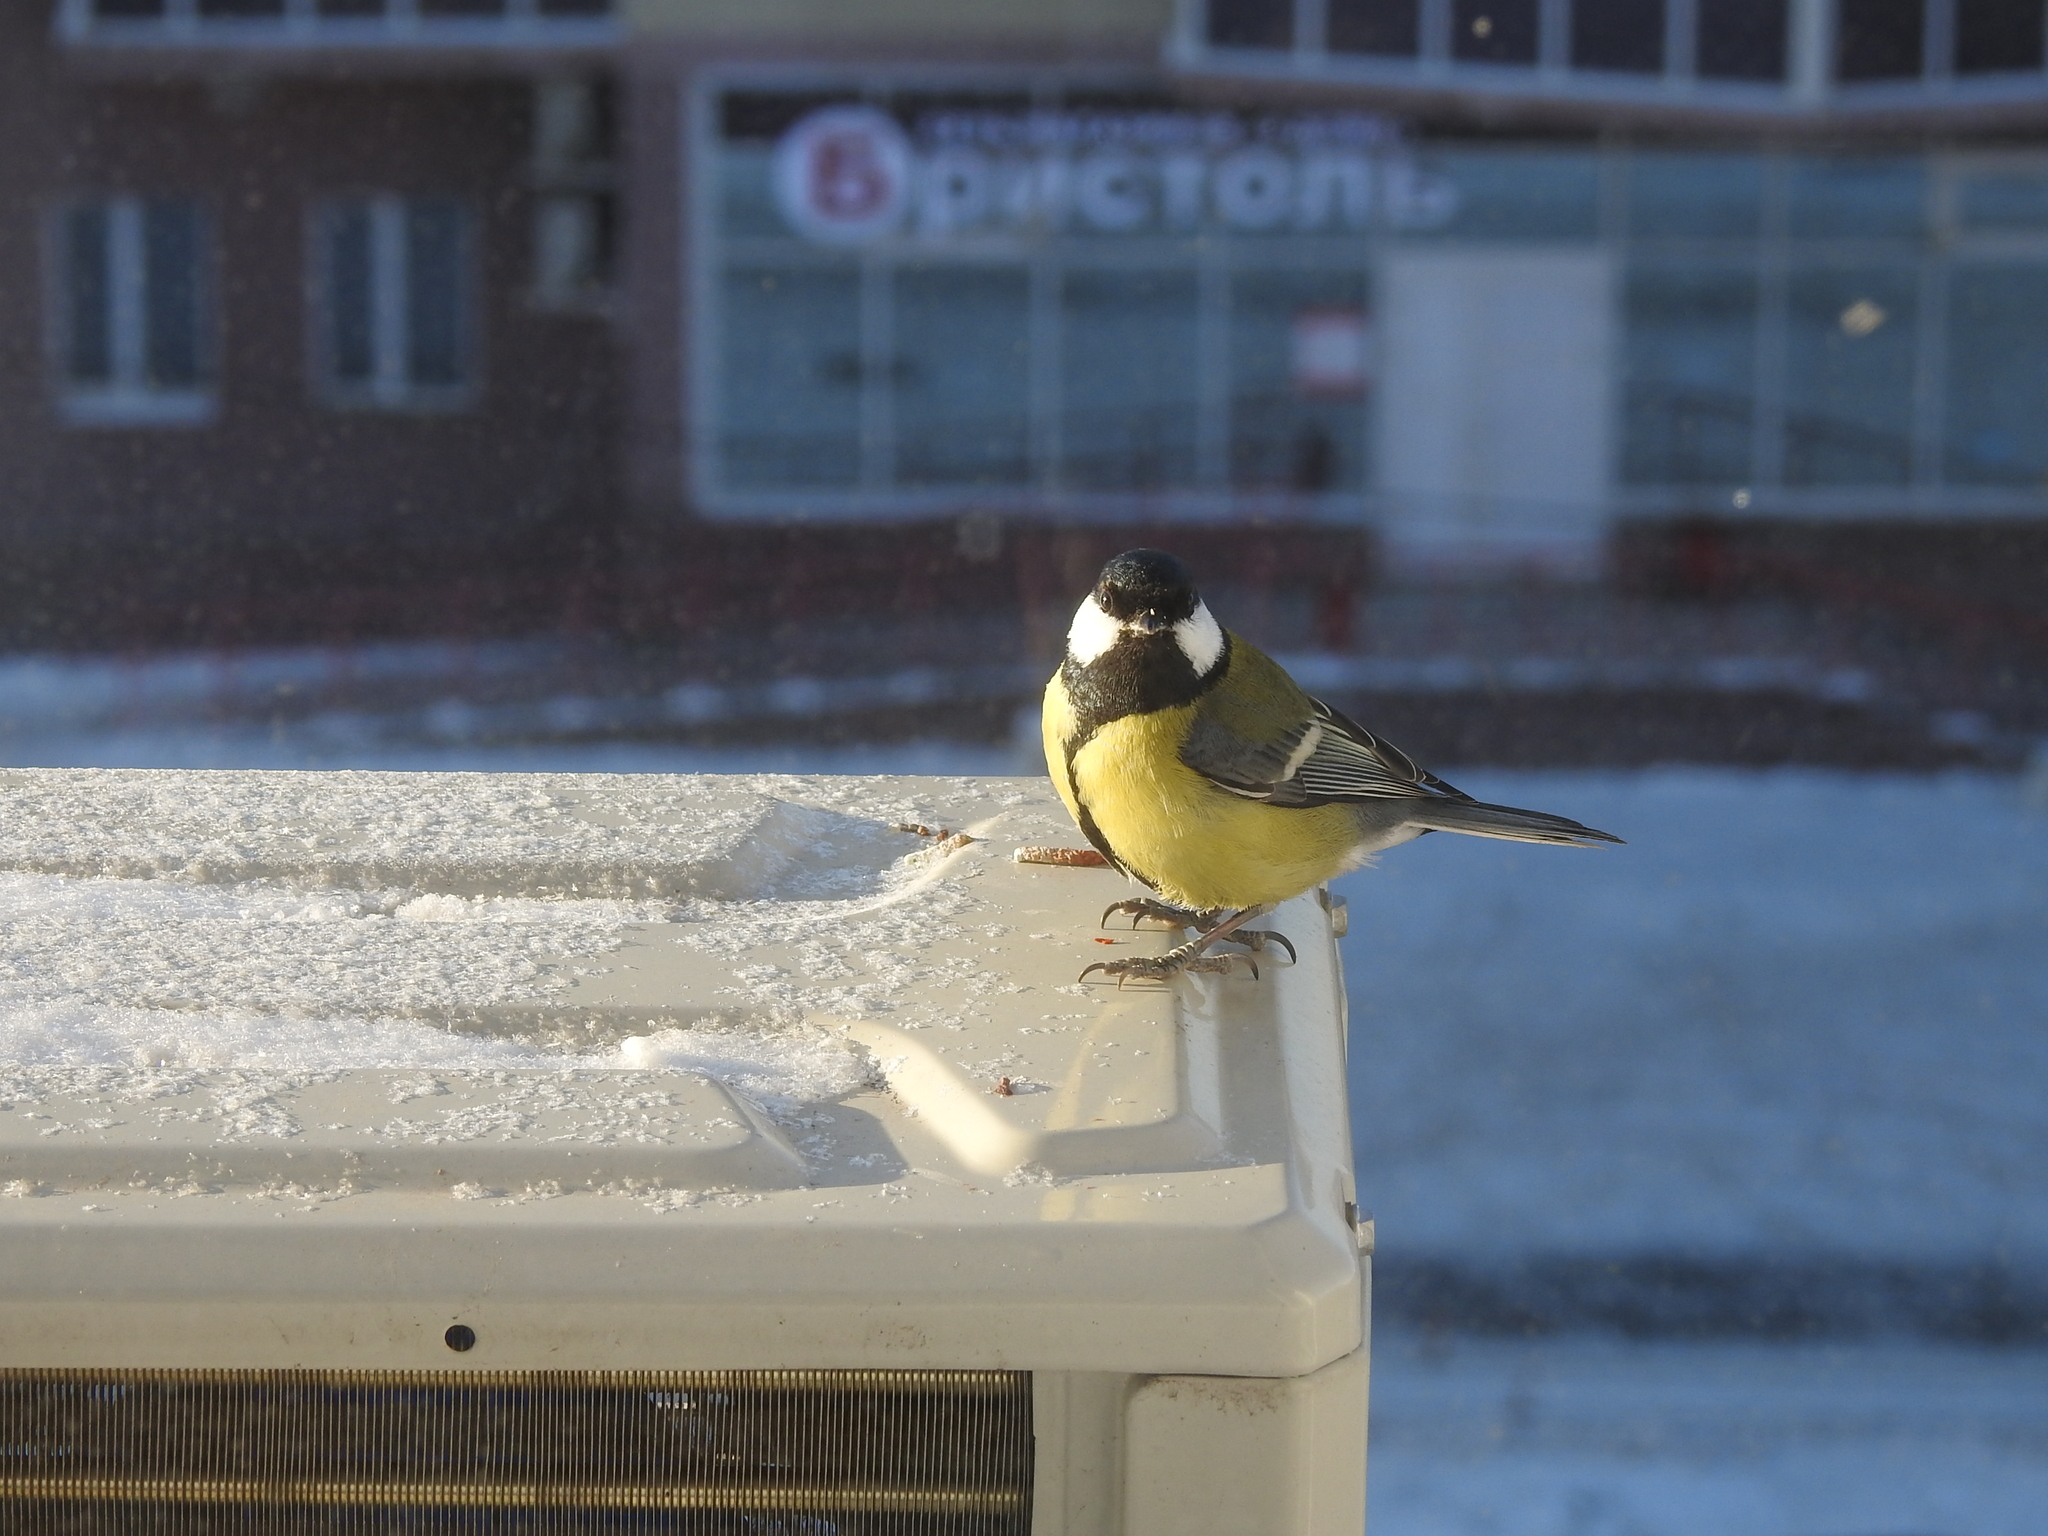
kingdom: Animalia
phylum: Chordata
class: Aves
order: Passeriformes
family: Paridae
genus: Parus
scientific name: Parus major
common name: Great tit
